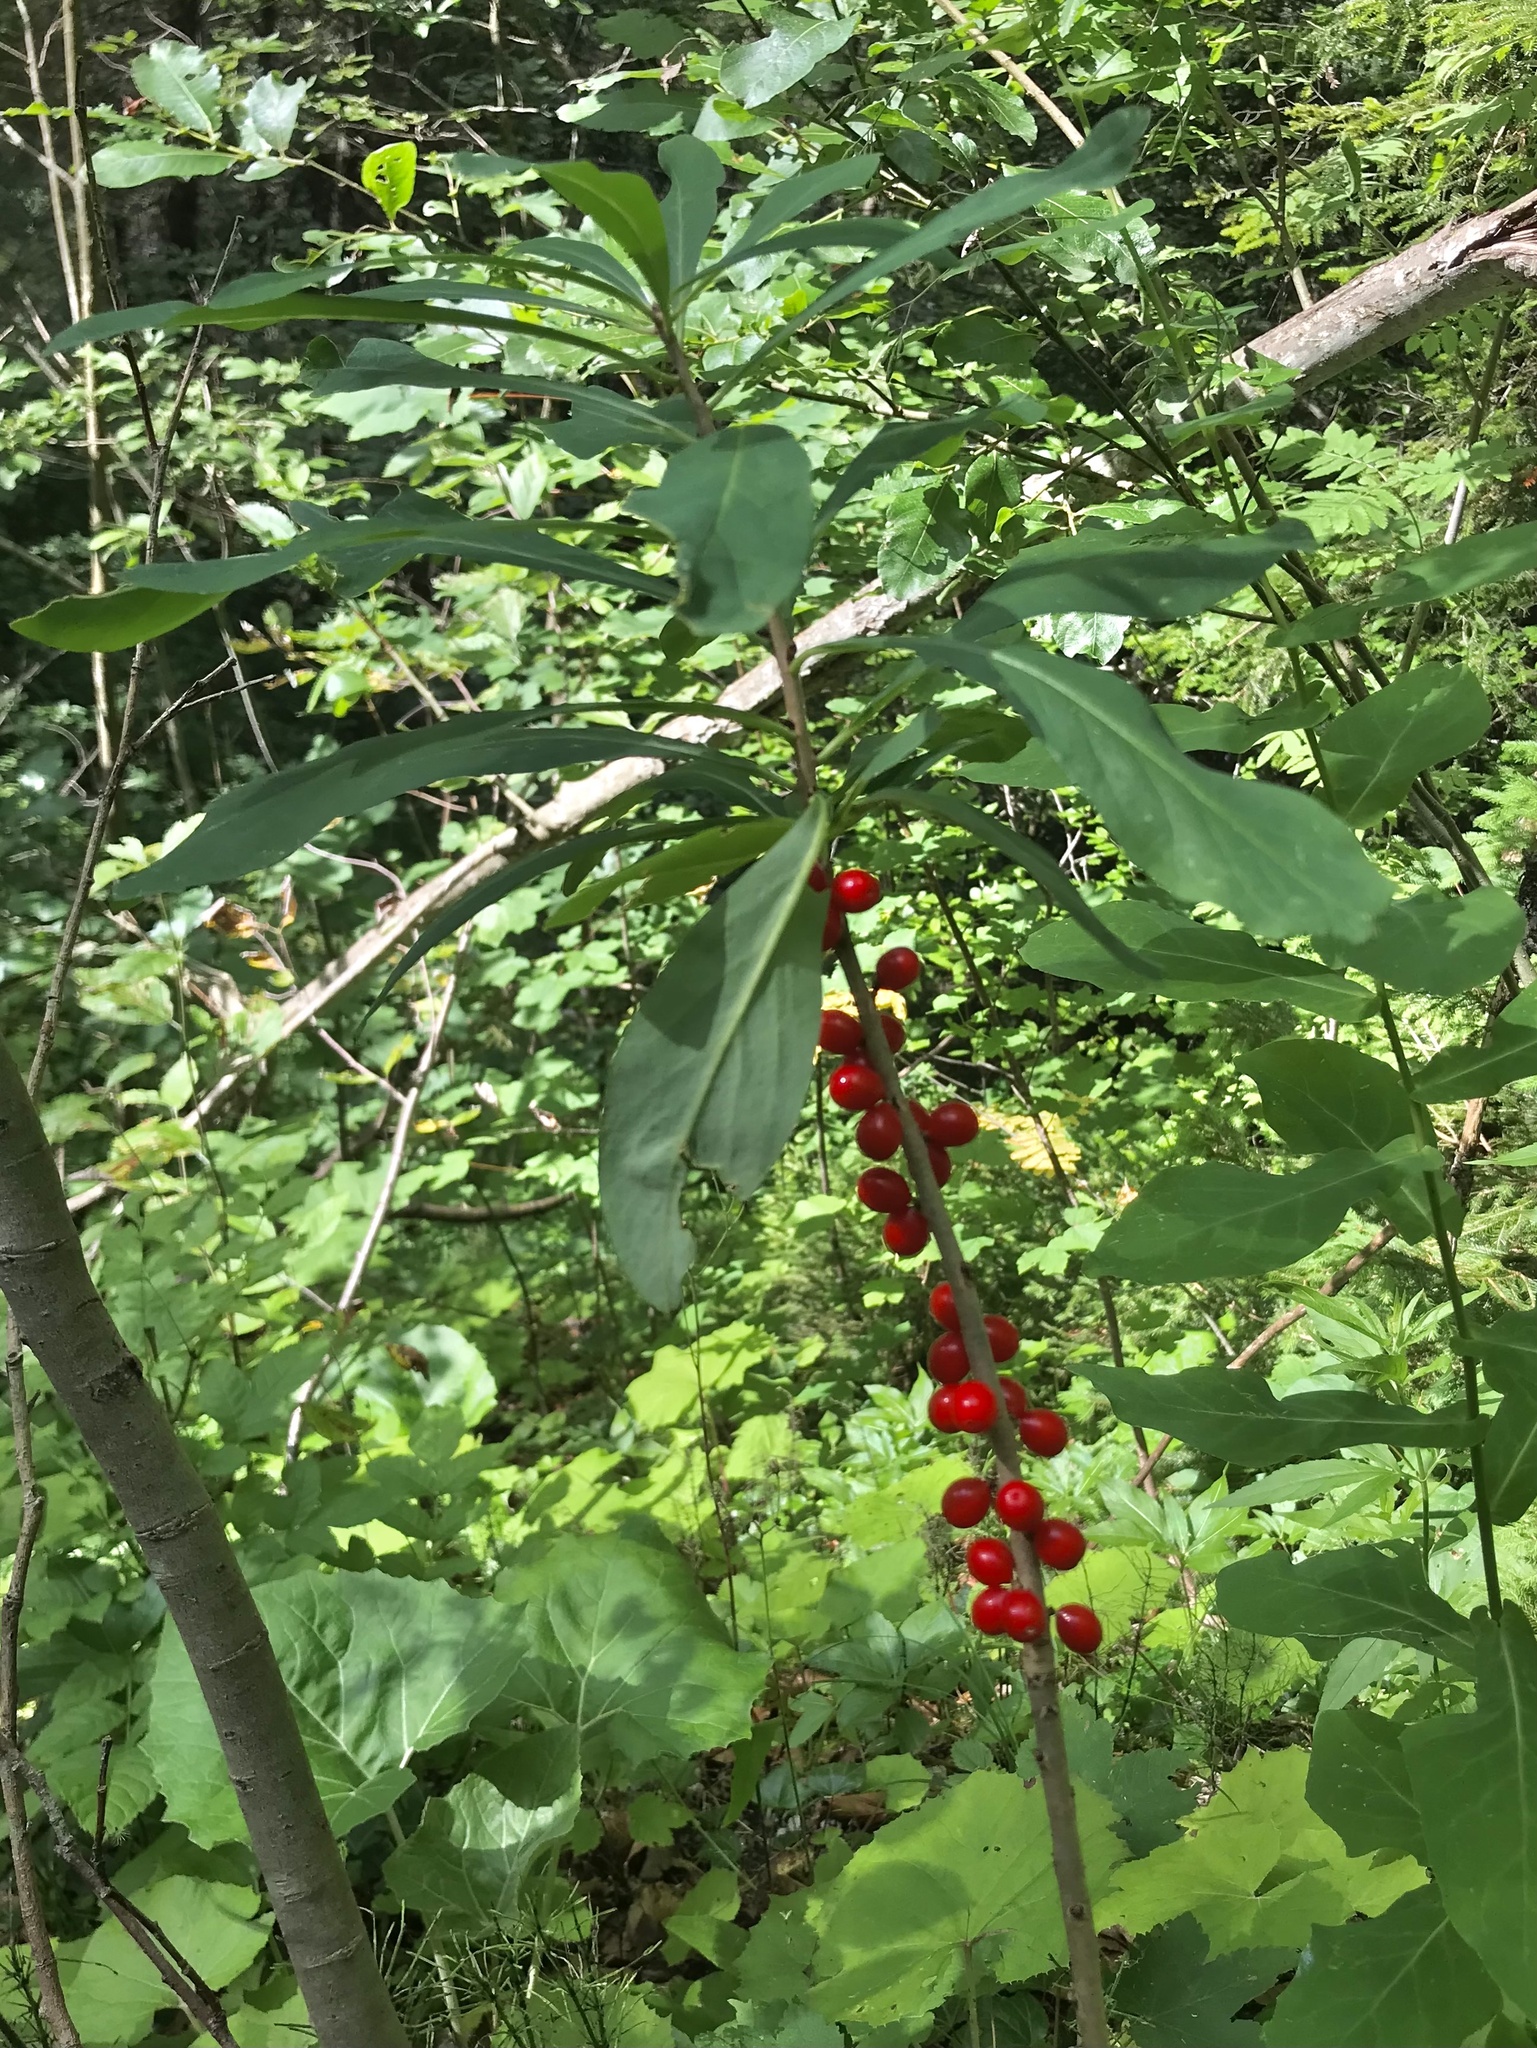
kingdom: Plantae
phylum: Tracheophyta
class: Magnoliopsida
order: Malvales
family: Thymelaeaceae
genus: Daphne
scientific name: Daphne mezereum
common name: Mezereon
